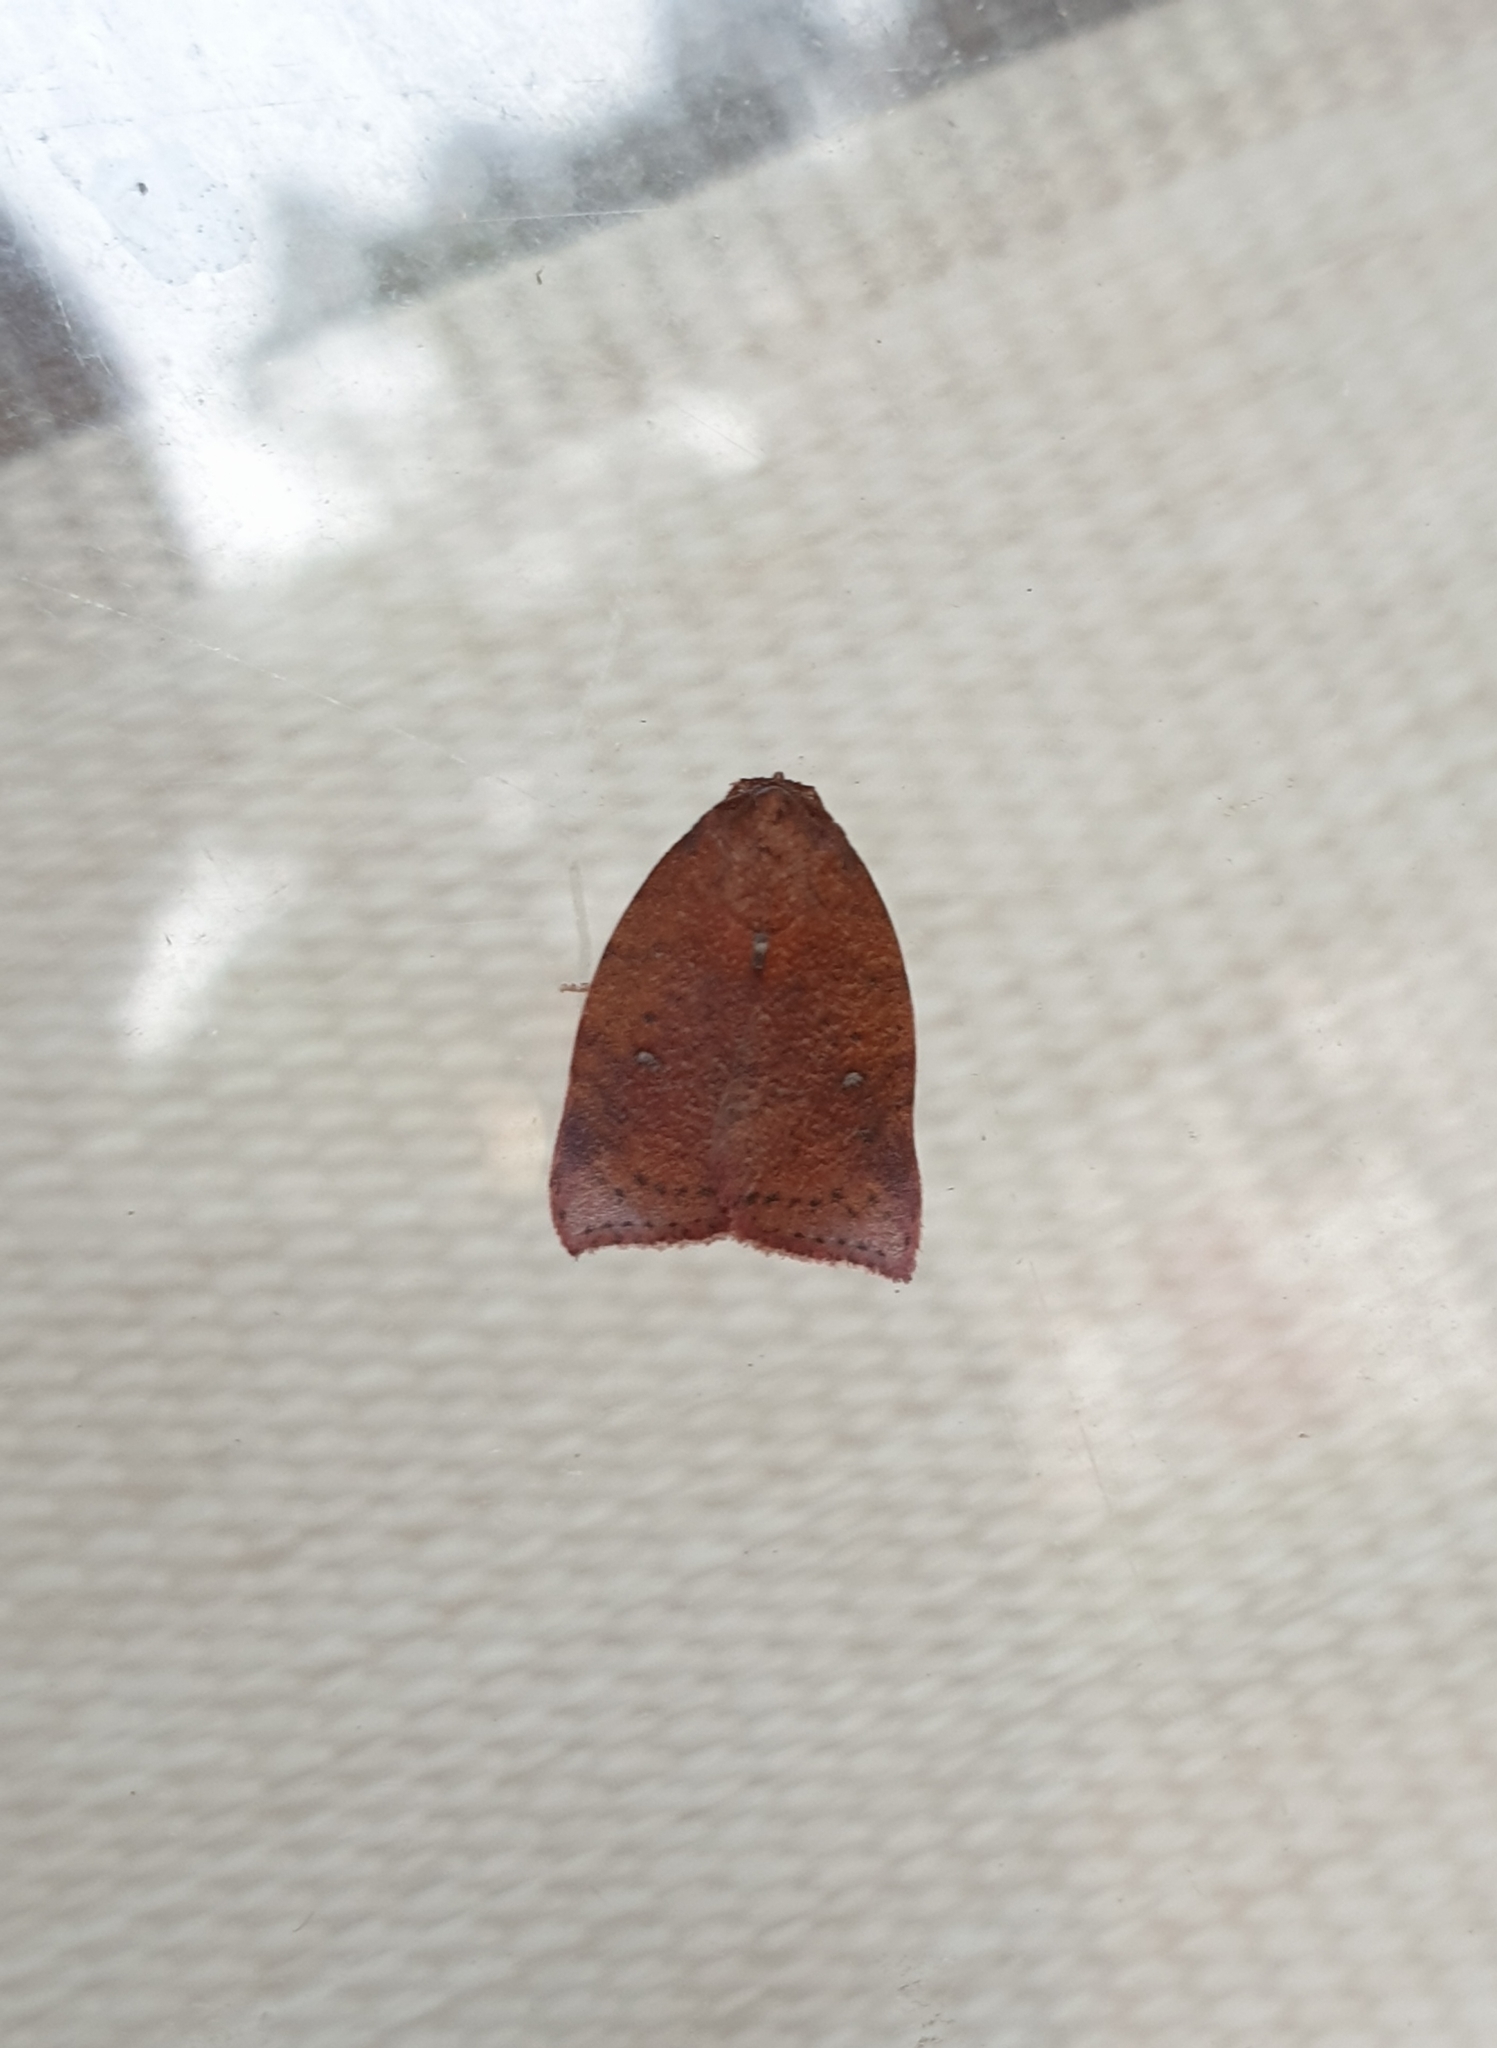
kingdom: Animalia
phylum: Arthropoda
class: Insecta
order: Lepidoptera
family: Nolidae
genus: Beara
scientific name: Beara dichromella
